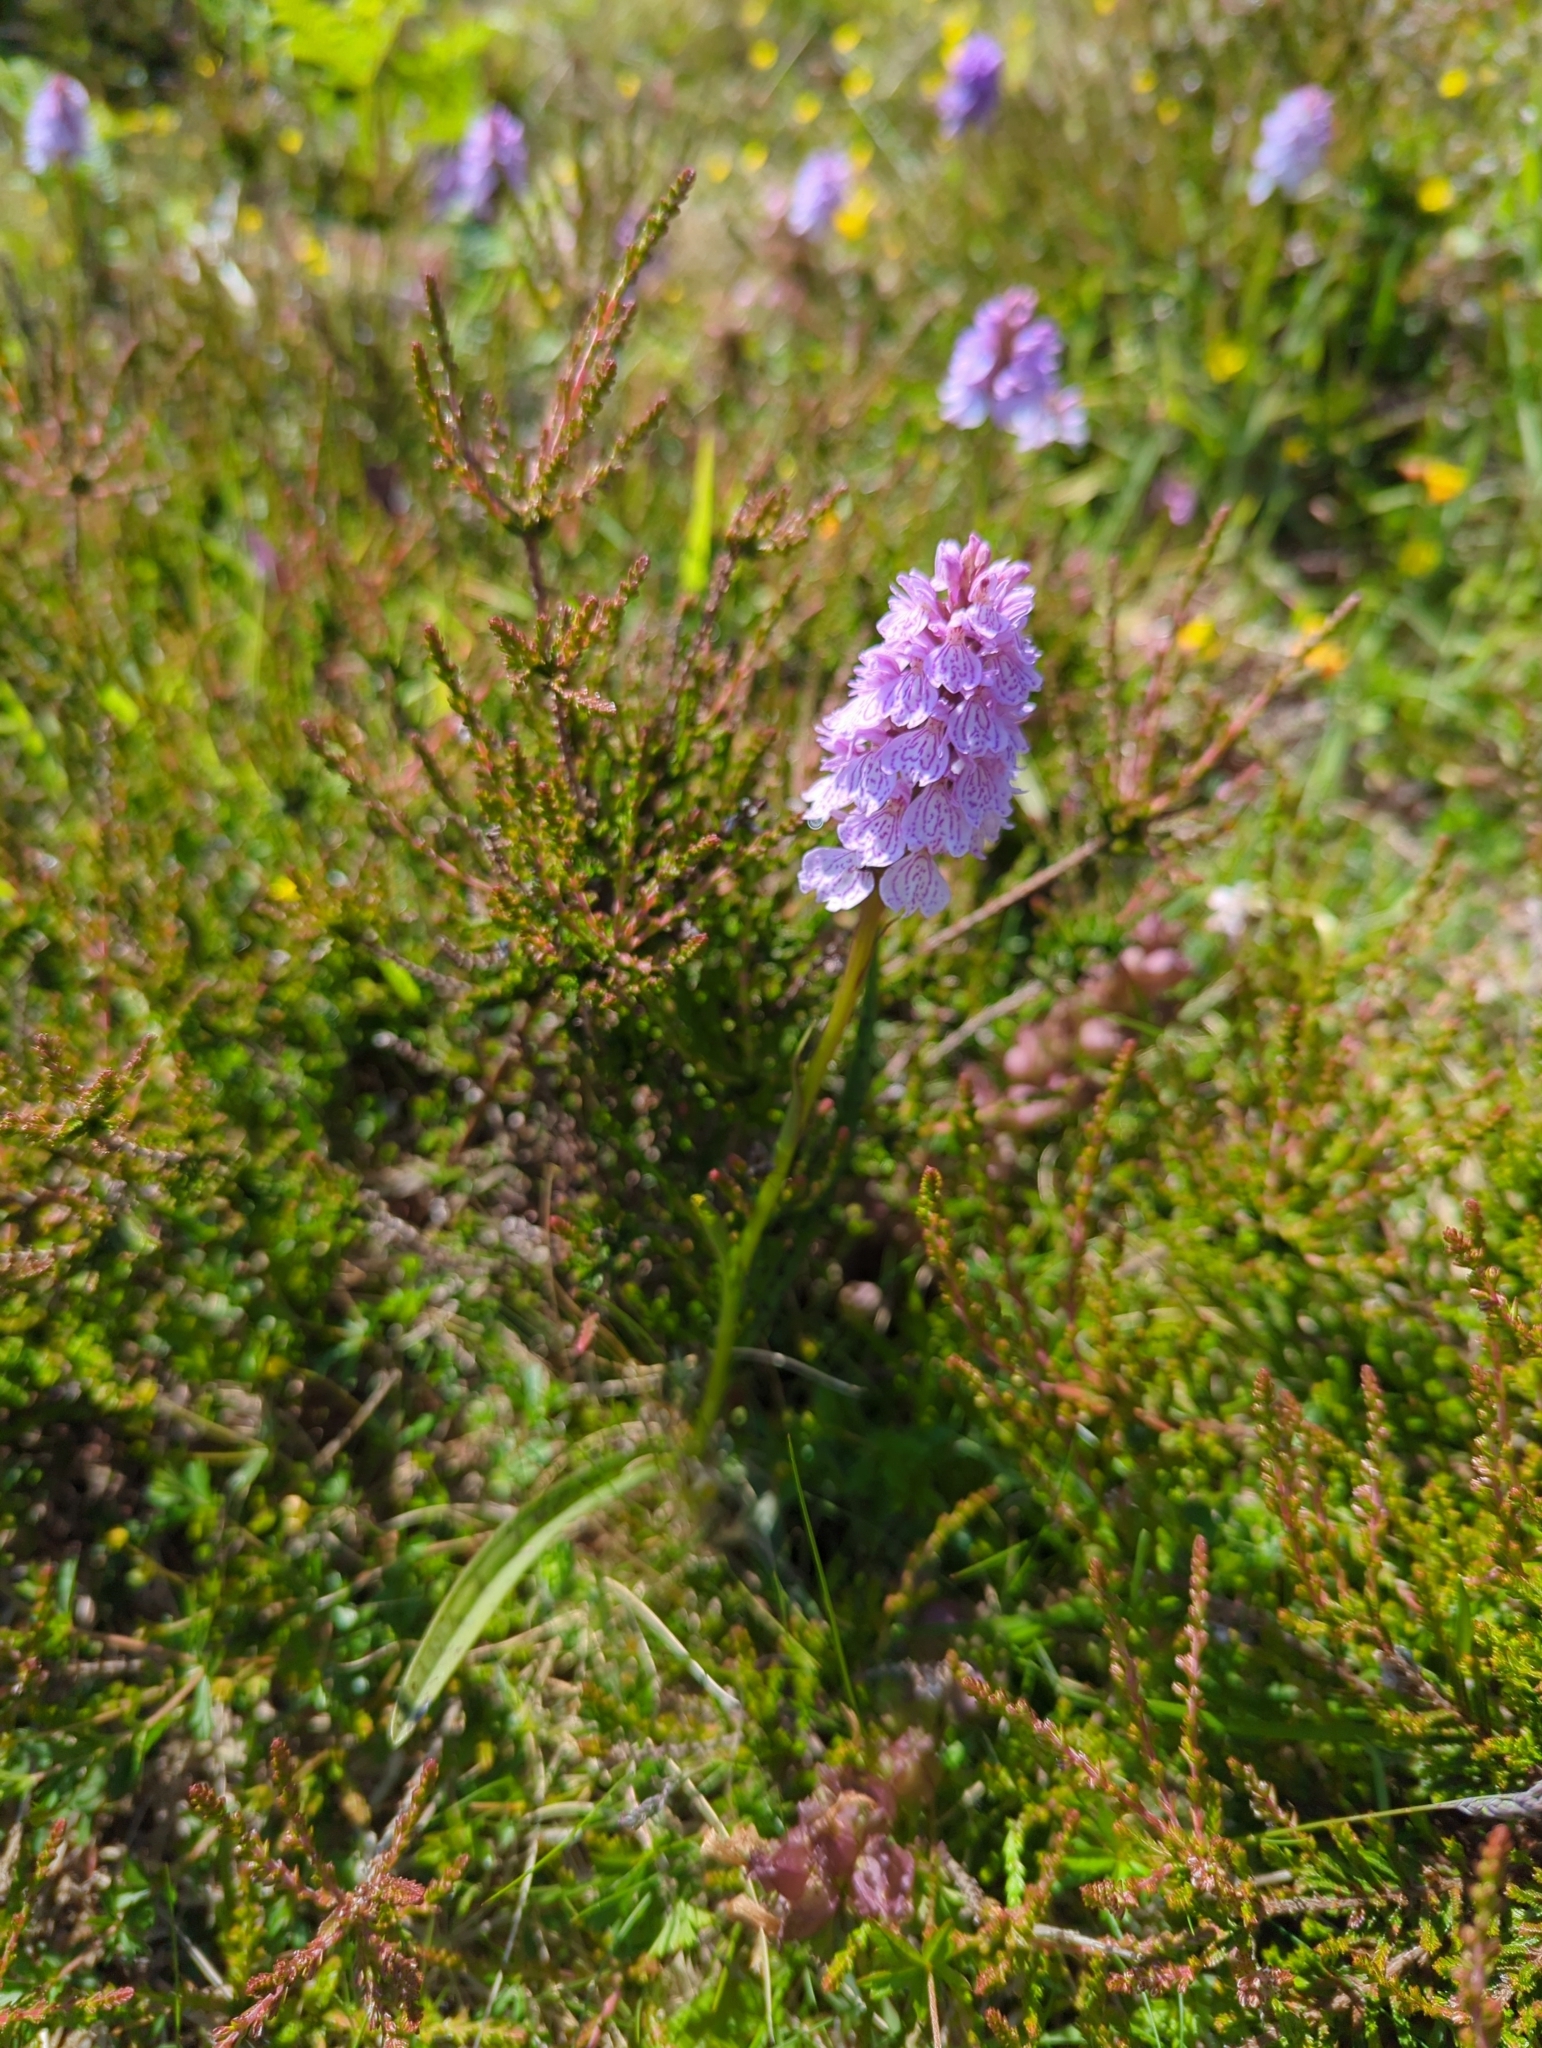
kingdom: Plantae
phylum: Tracheophyta
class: Liliopsida
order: Asparagales
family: Orchidaceae
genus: Dactylorhiza
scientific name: Dactylorhiza maculata
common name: Heath spotted-orchid
